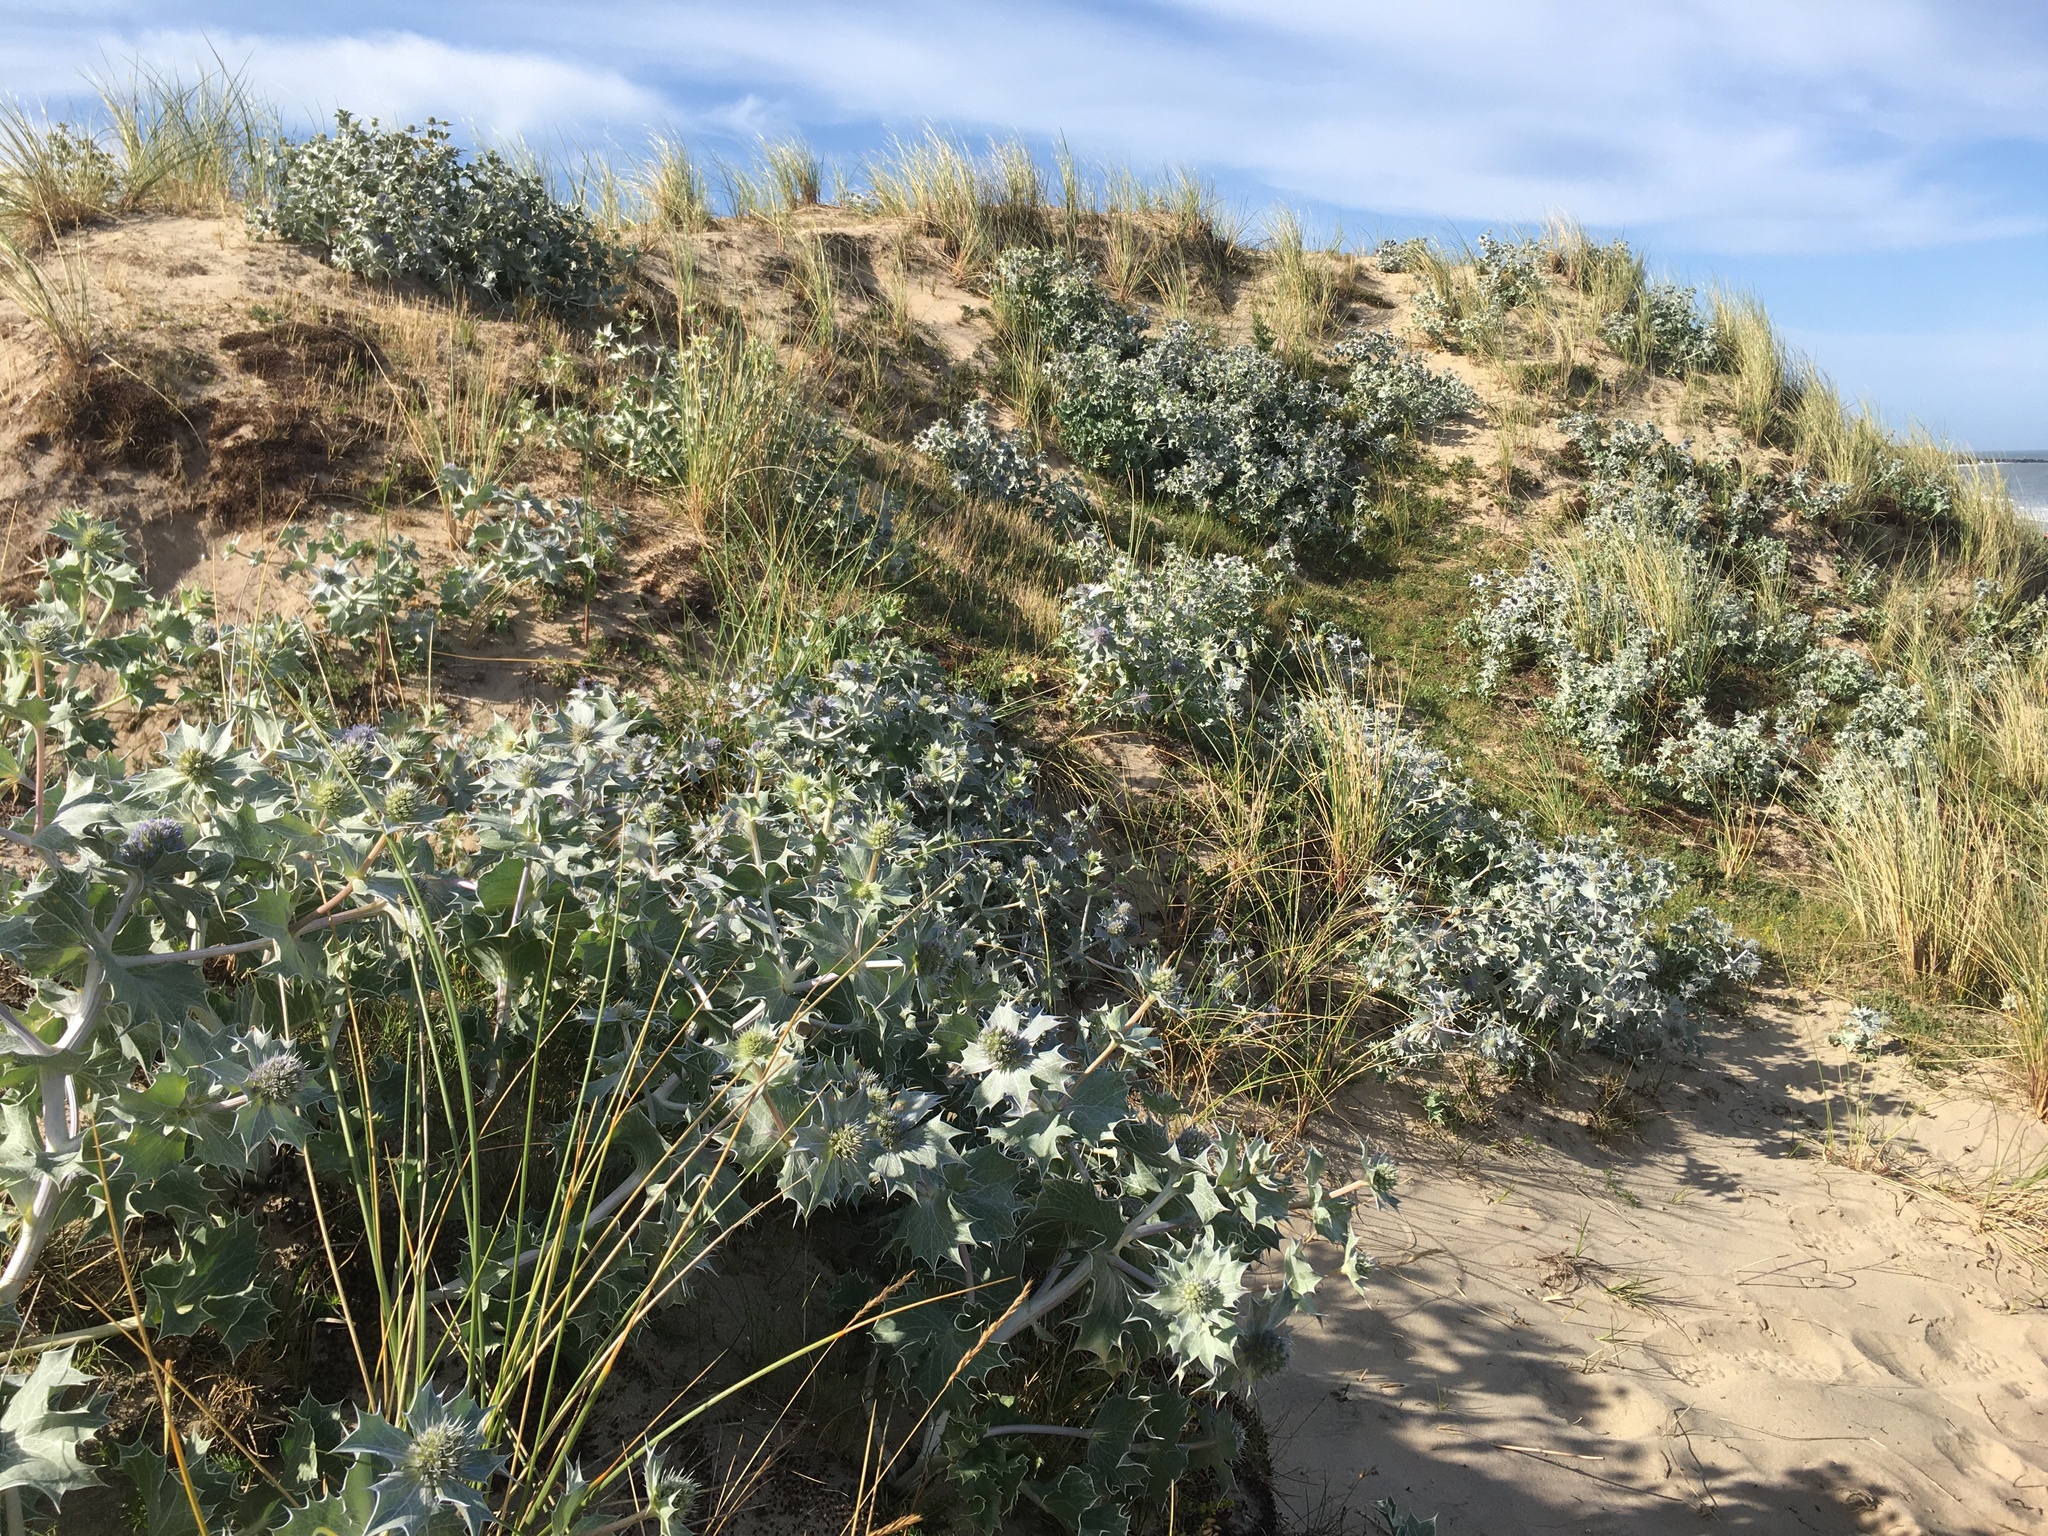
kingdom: Plantae
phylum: Tracheophyta
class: Magnoliopsida
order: Apiales
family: Apiaceae
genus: Eryngium
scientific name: Eryngium maritimum
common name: Sea-holly
